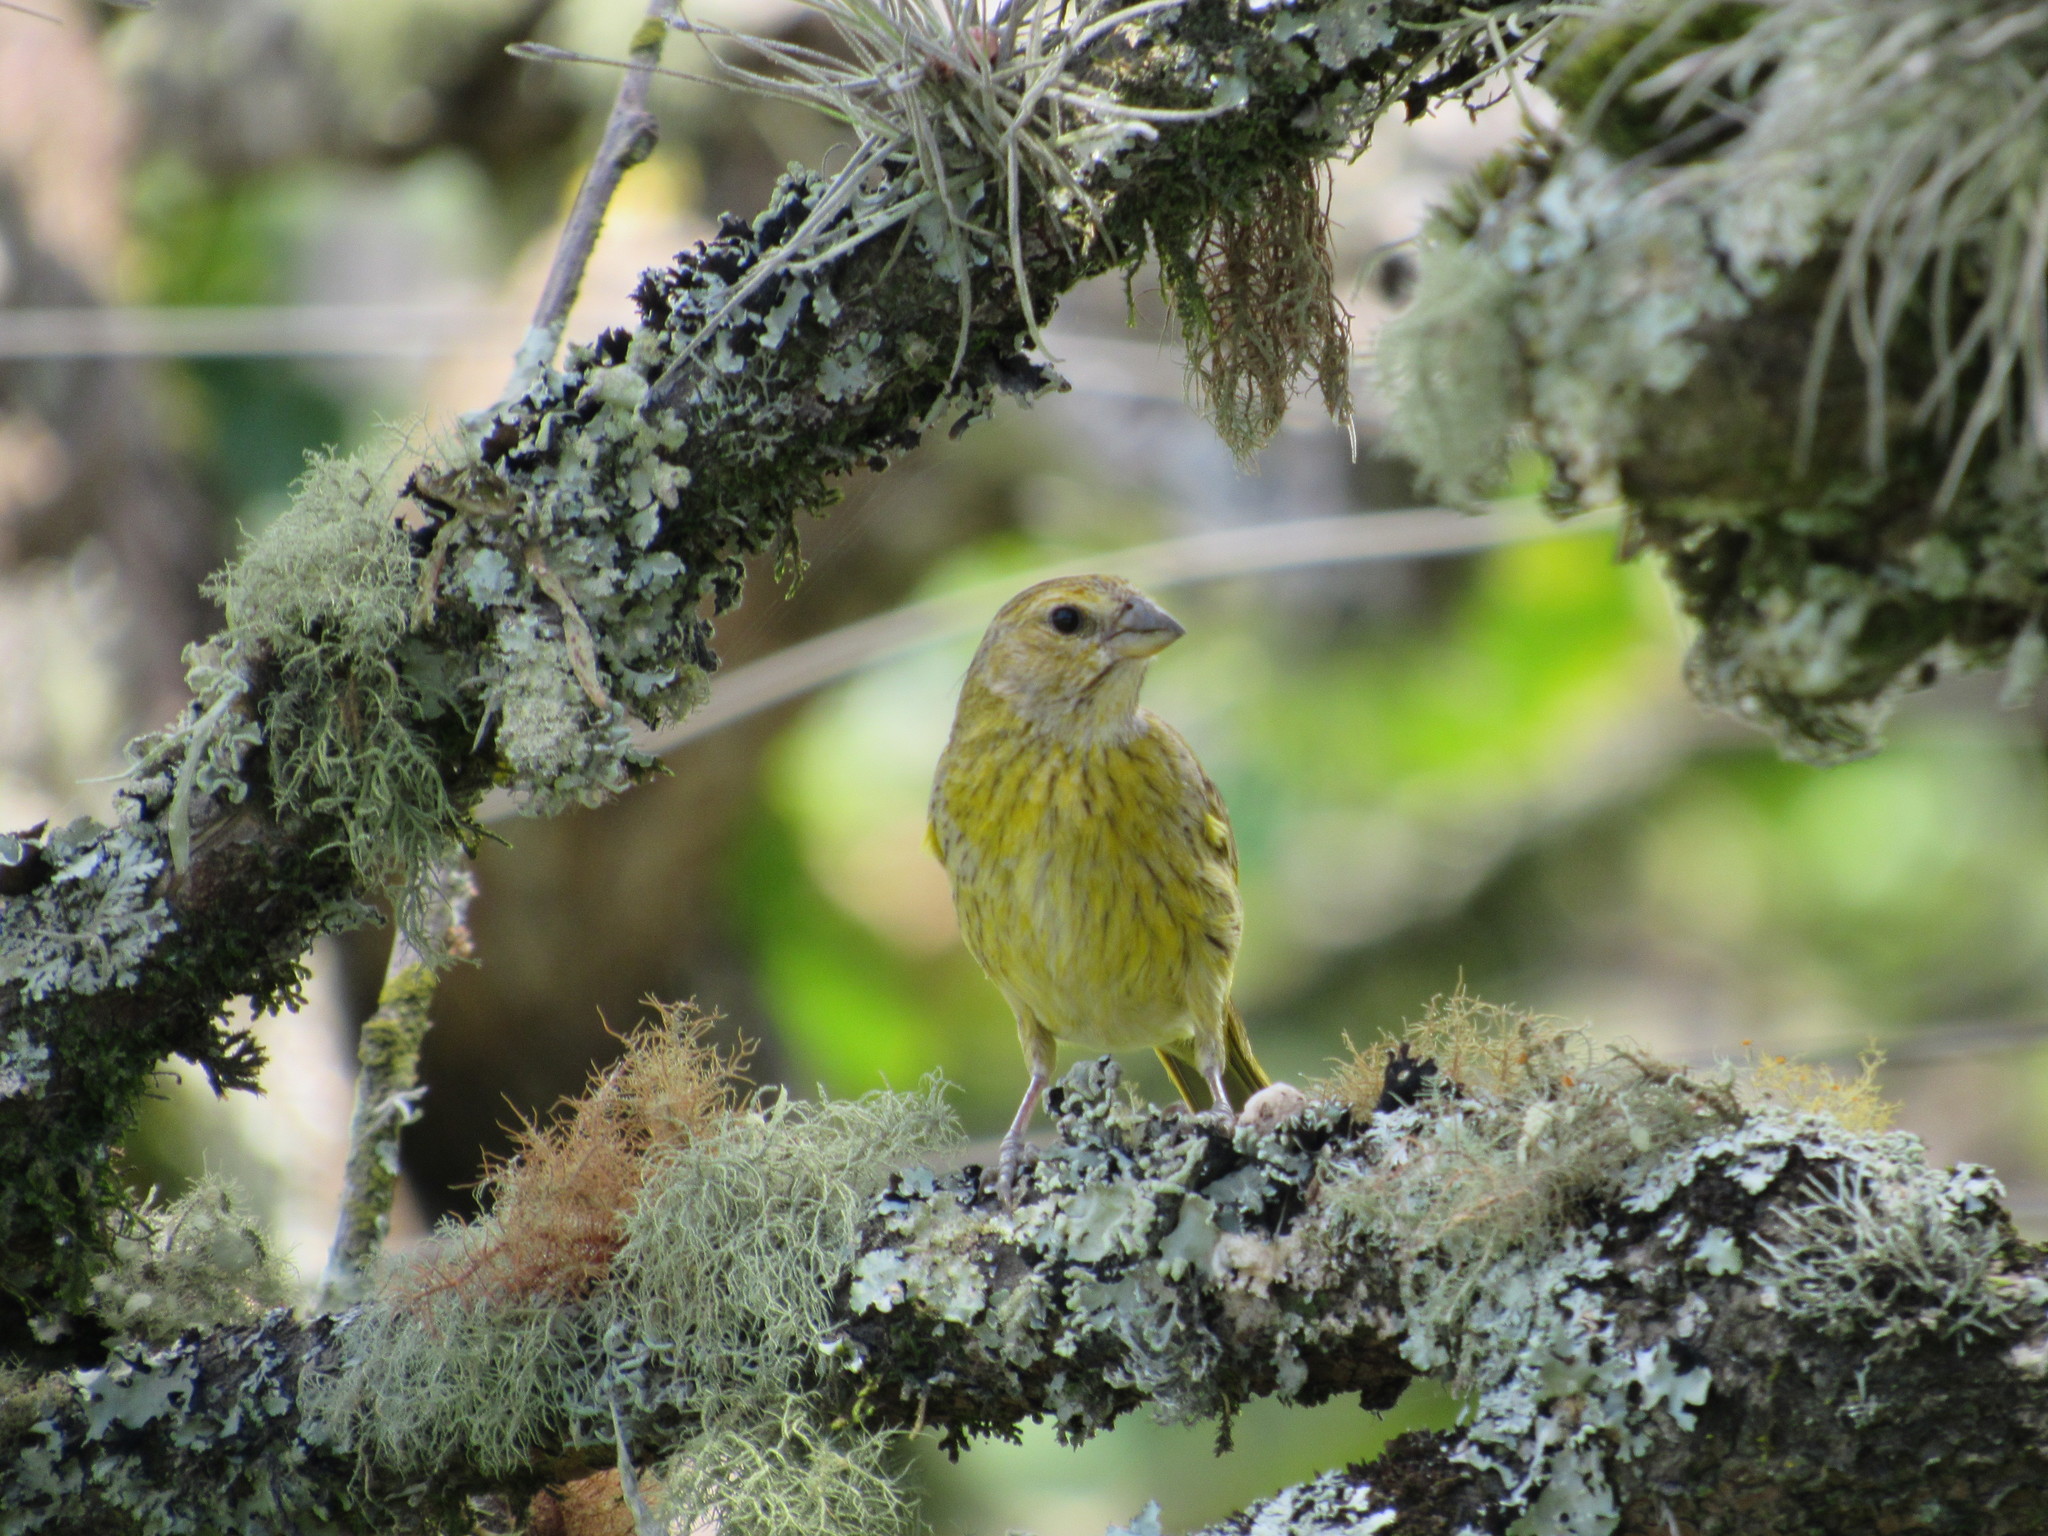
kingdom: Animalia
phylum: Chordata
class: Aves
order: Passeriformes
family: Thraupidae
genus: Sicalis
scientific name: Sicalis flaveola
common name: Saffron finch
